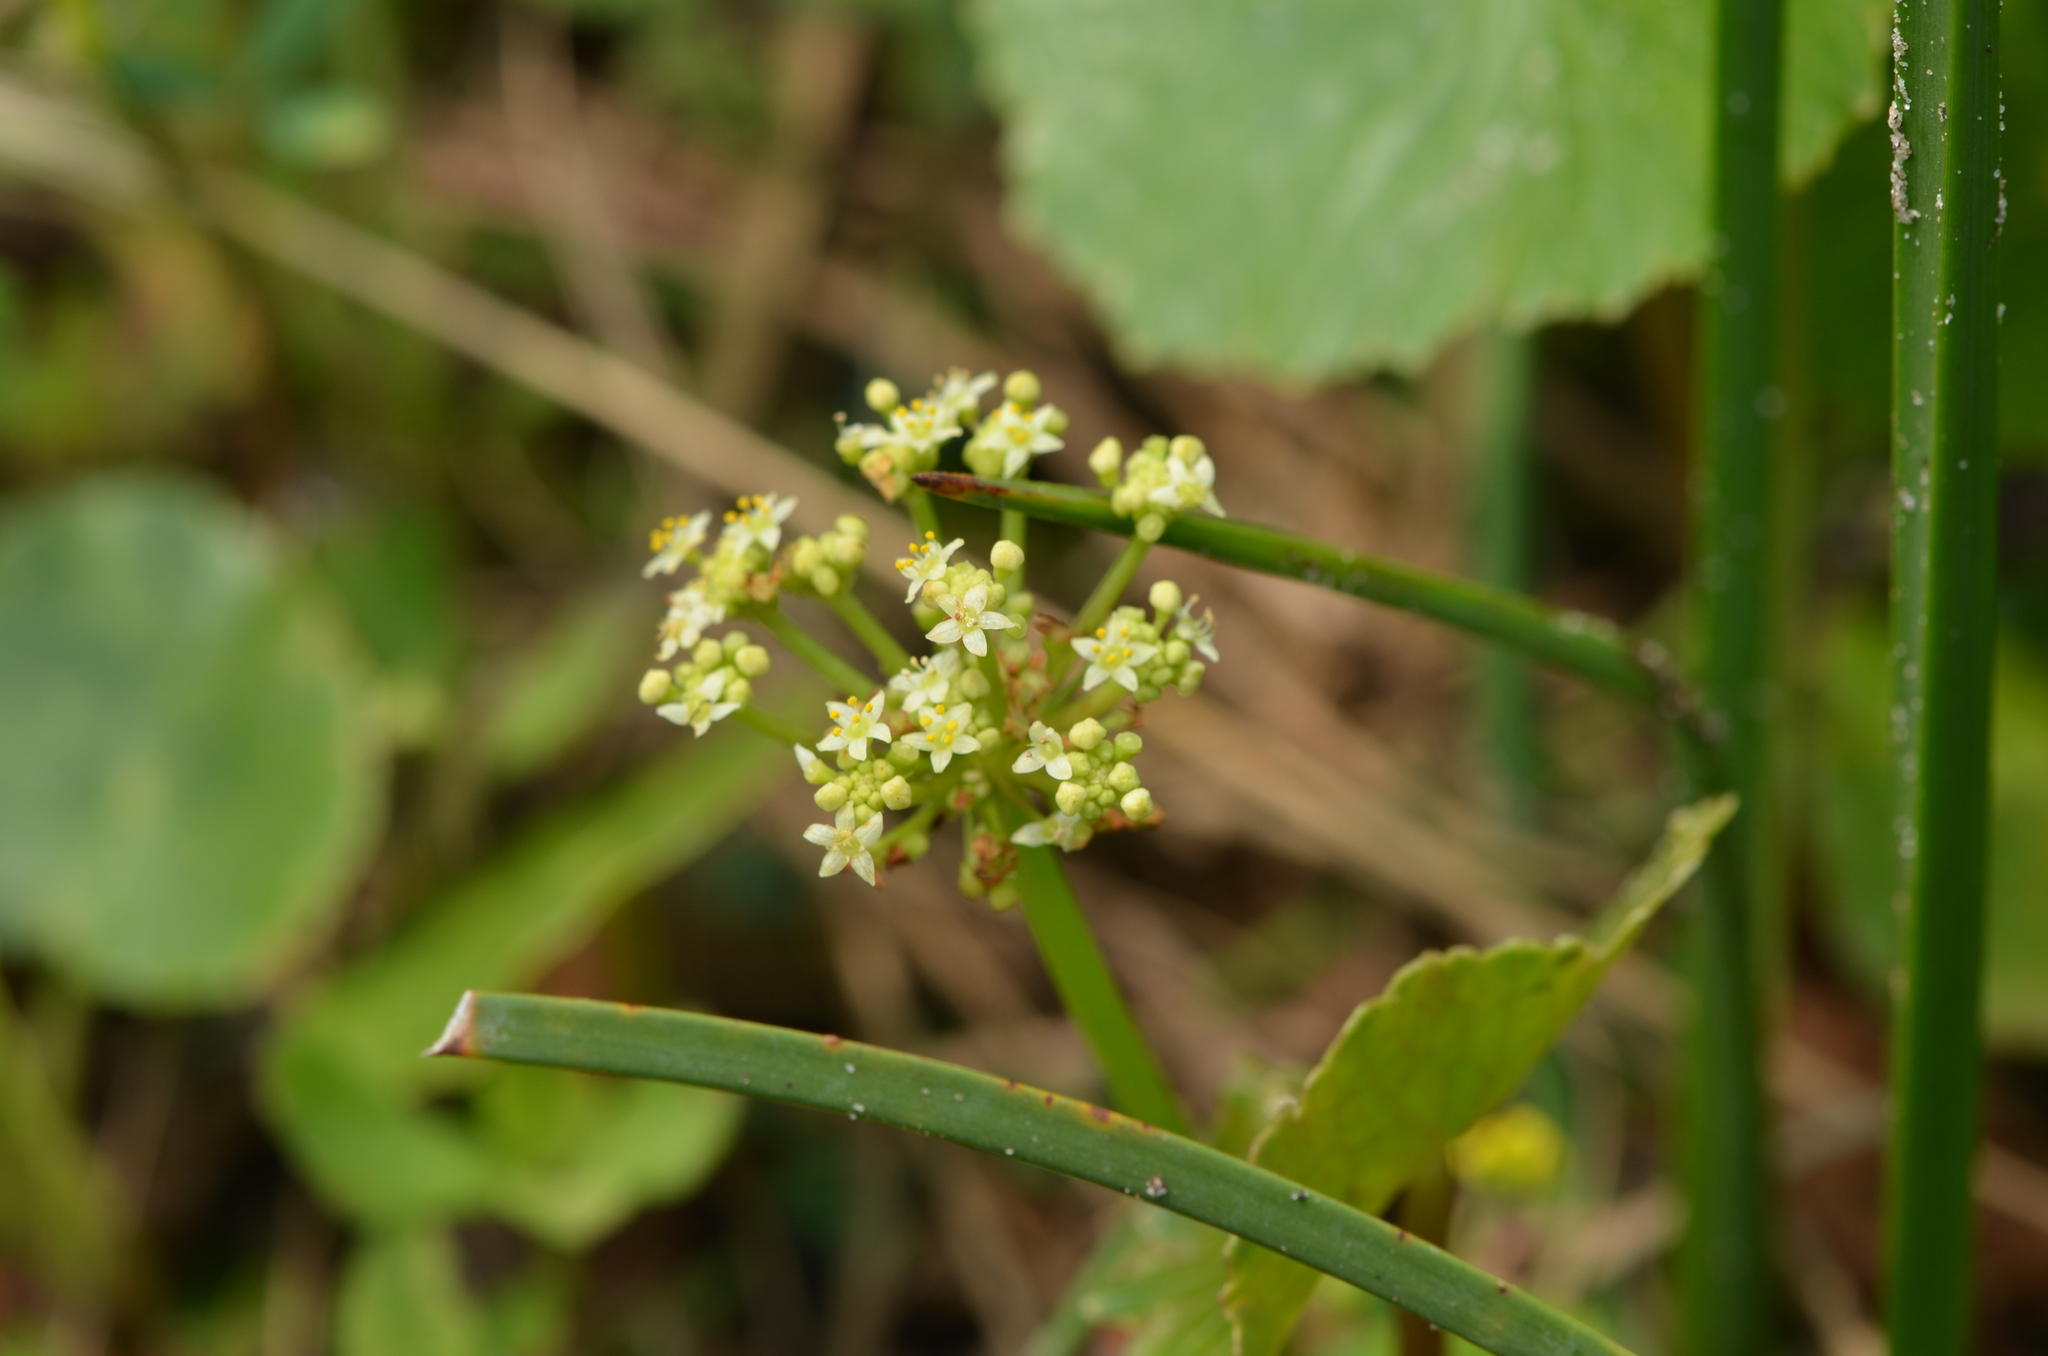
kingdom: Plantae
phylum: Tracheophyta
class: Magnoliopsida
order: Apiales
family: Araliaceae
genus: Hydrocotyle
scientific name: Hydrocotyle bonariensis
